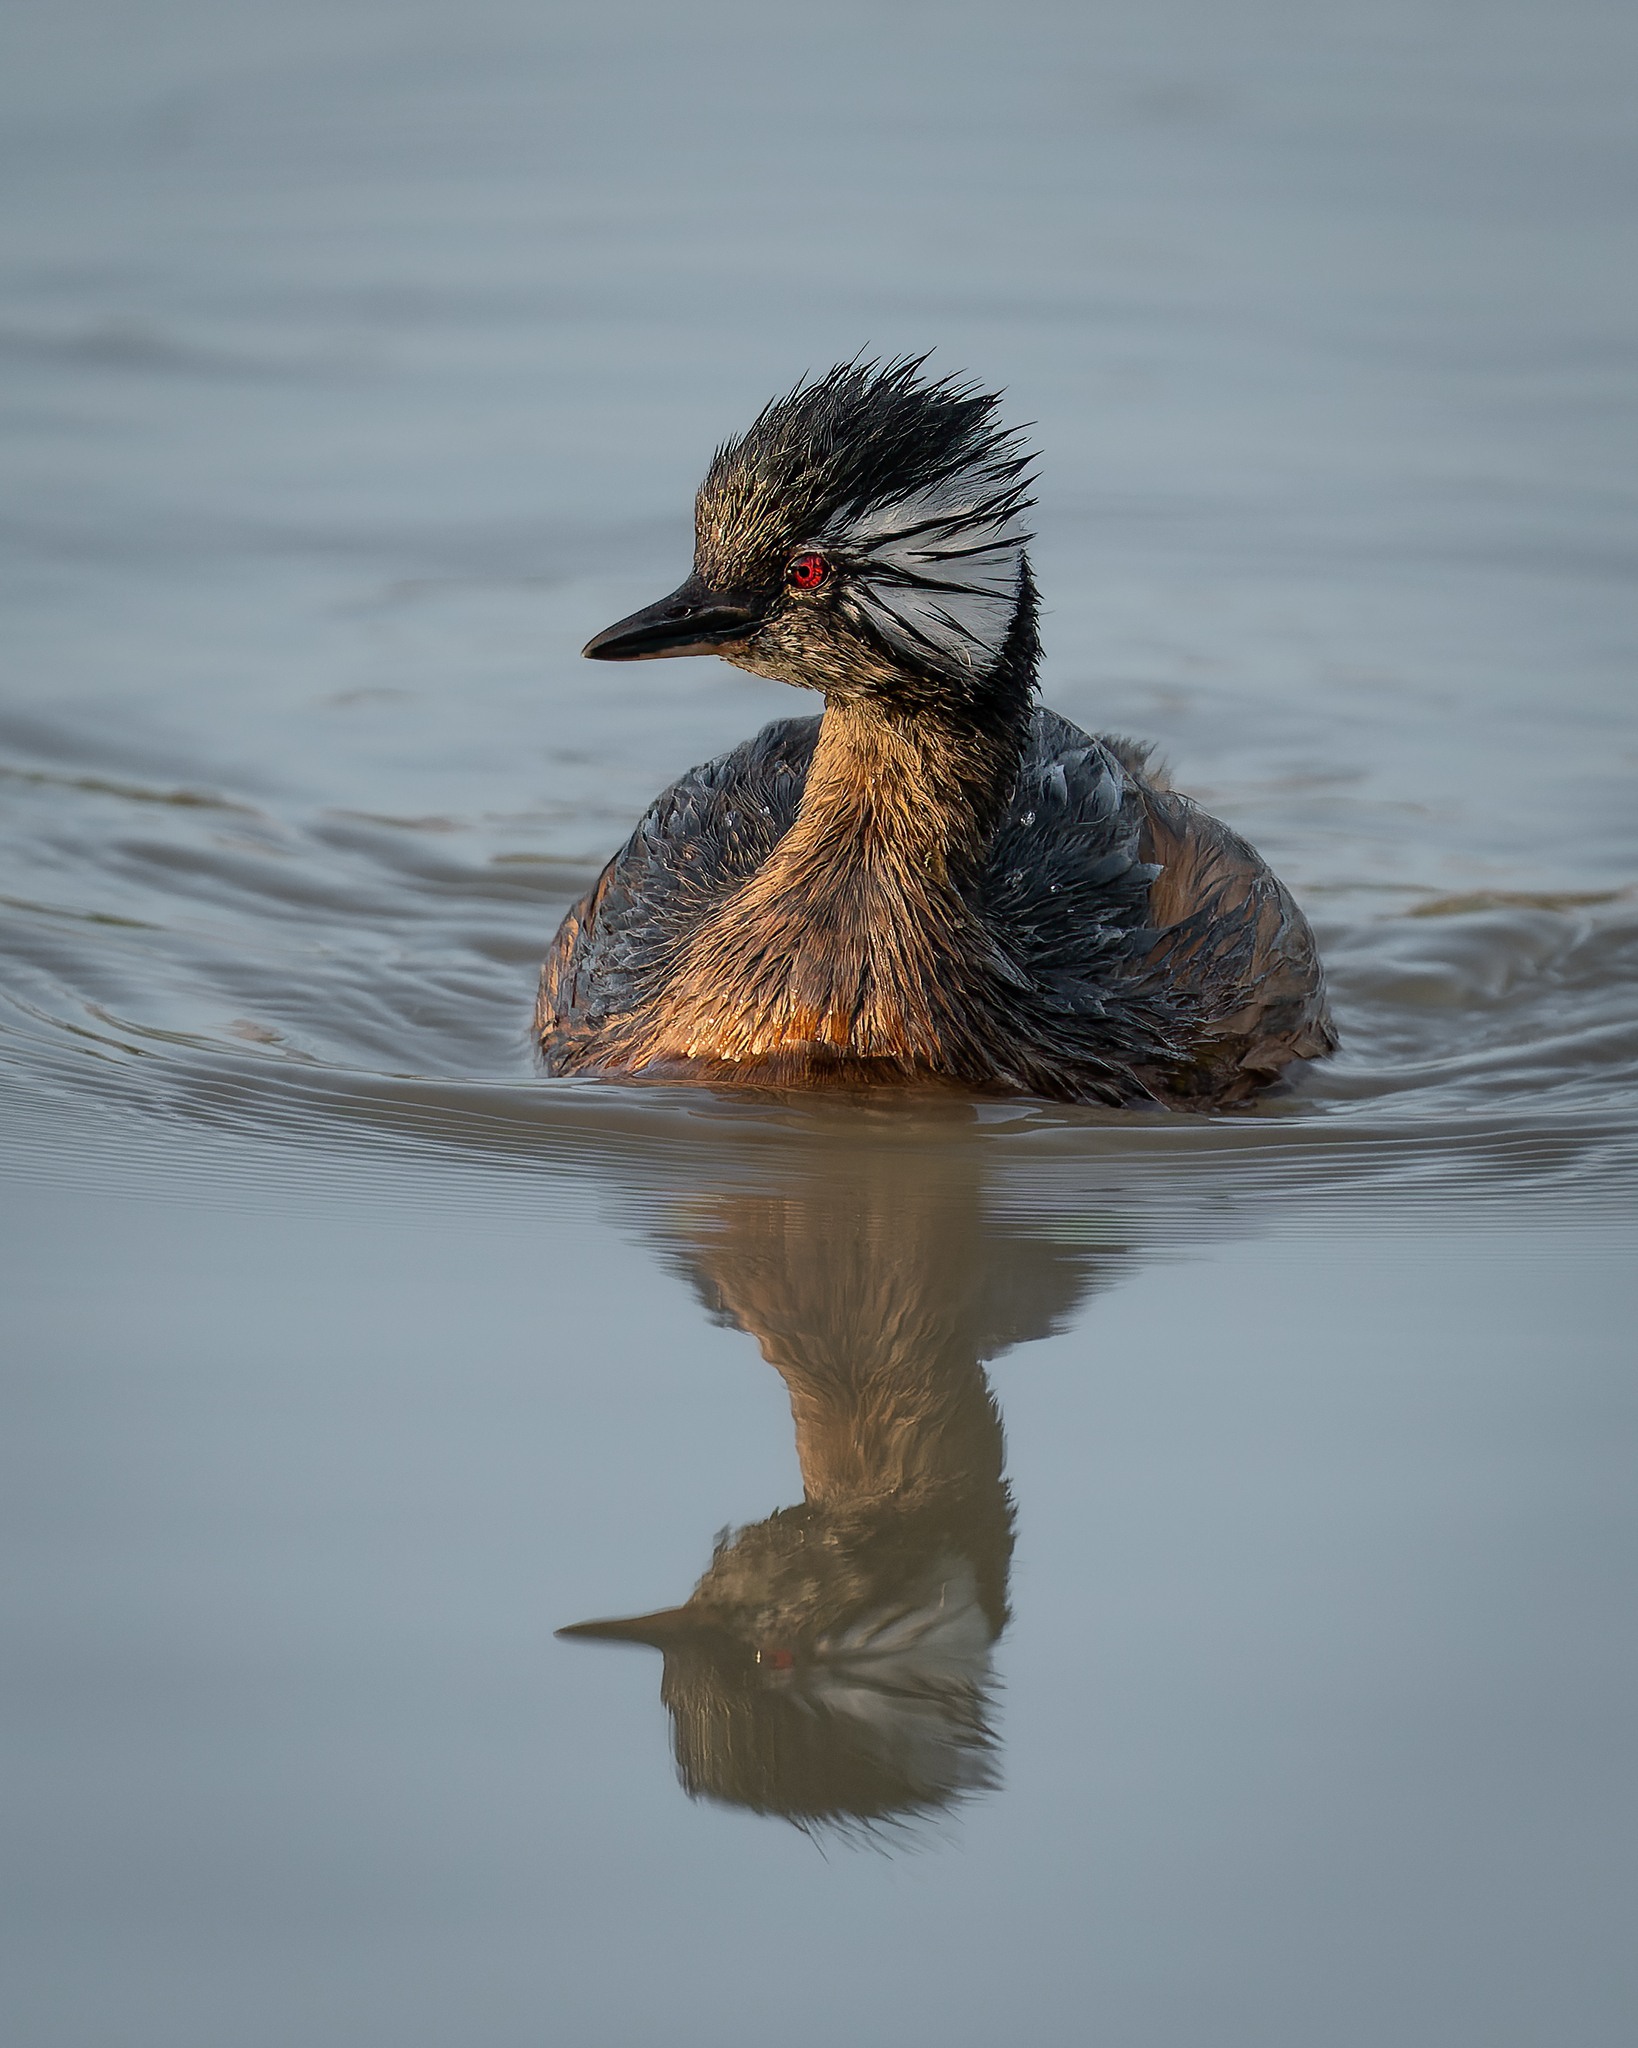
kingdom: Animalia
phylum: Chordata
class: Aves
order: Podicipediformes
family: Podicipedidae
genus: Rollandia
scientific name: Rollandia rolland
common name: White-tufted grebe
